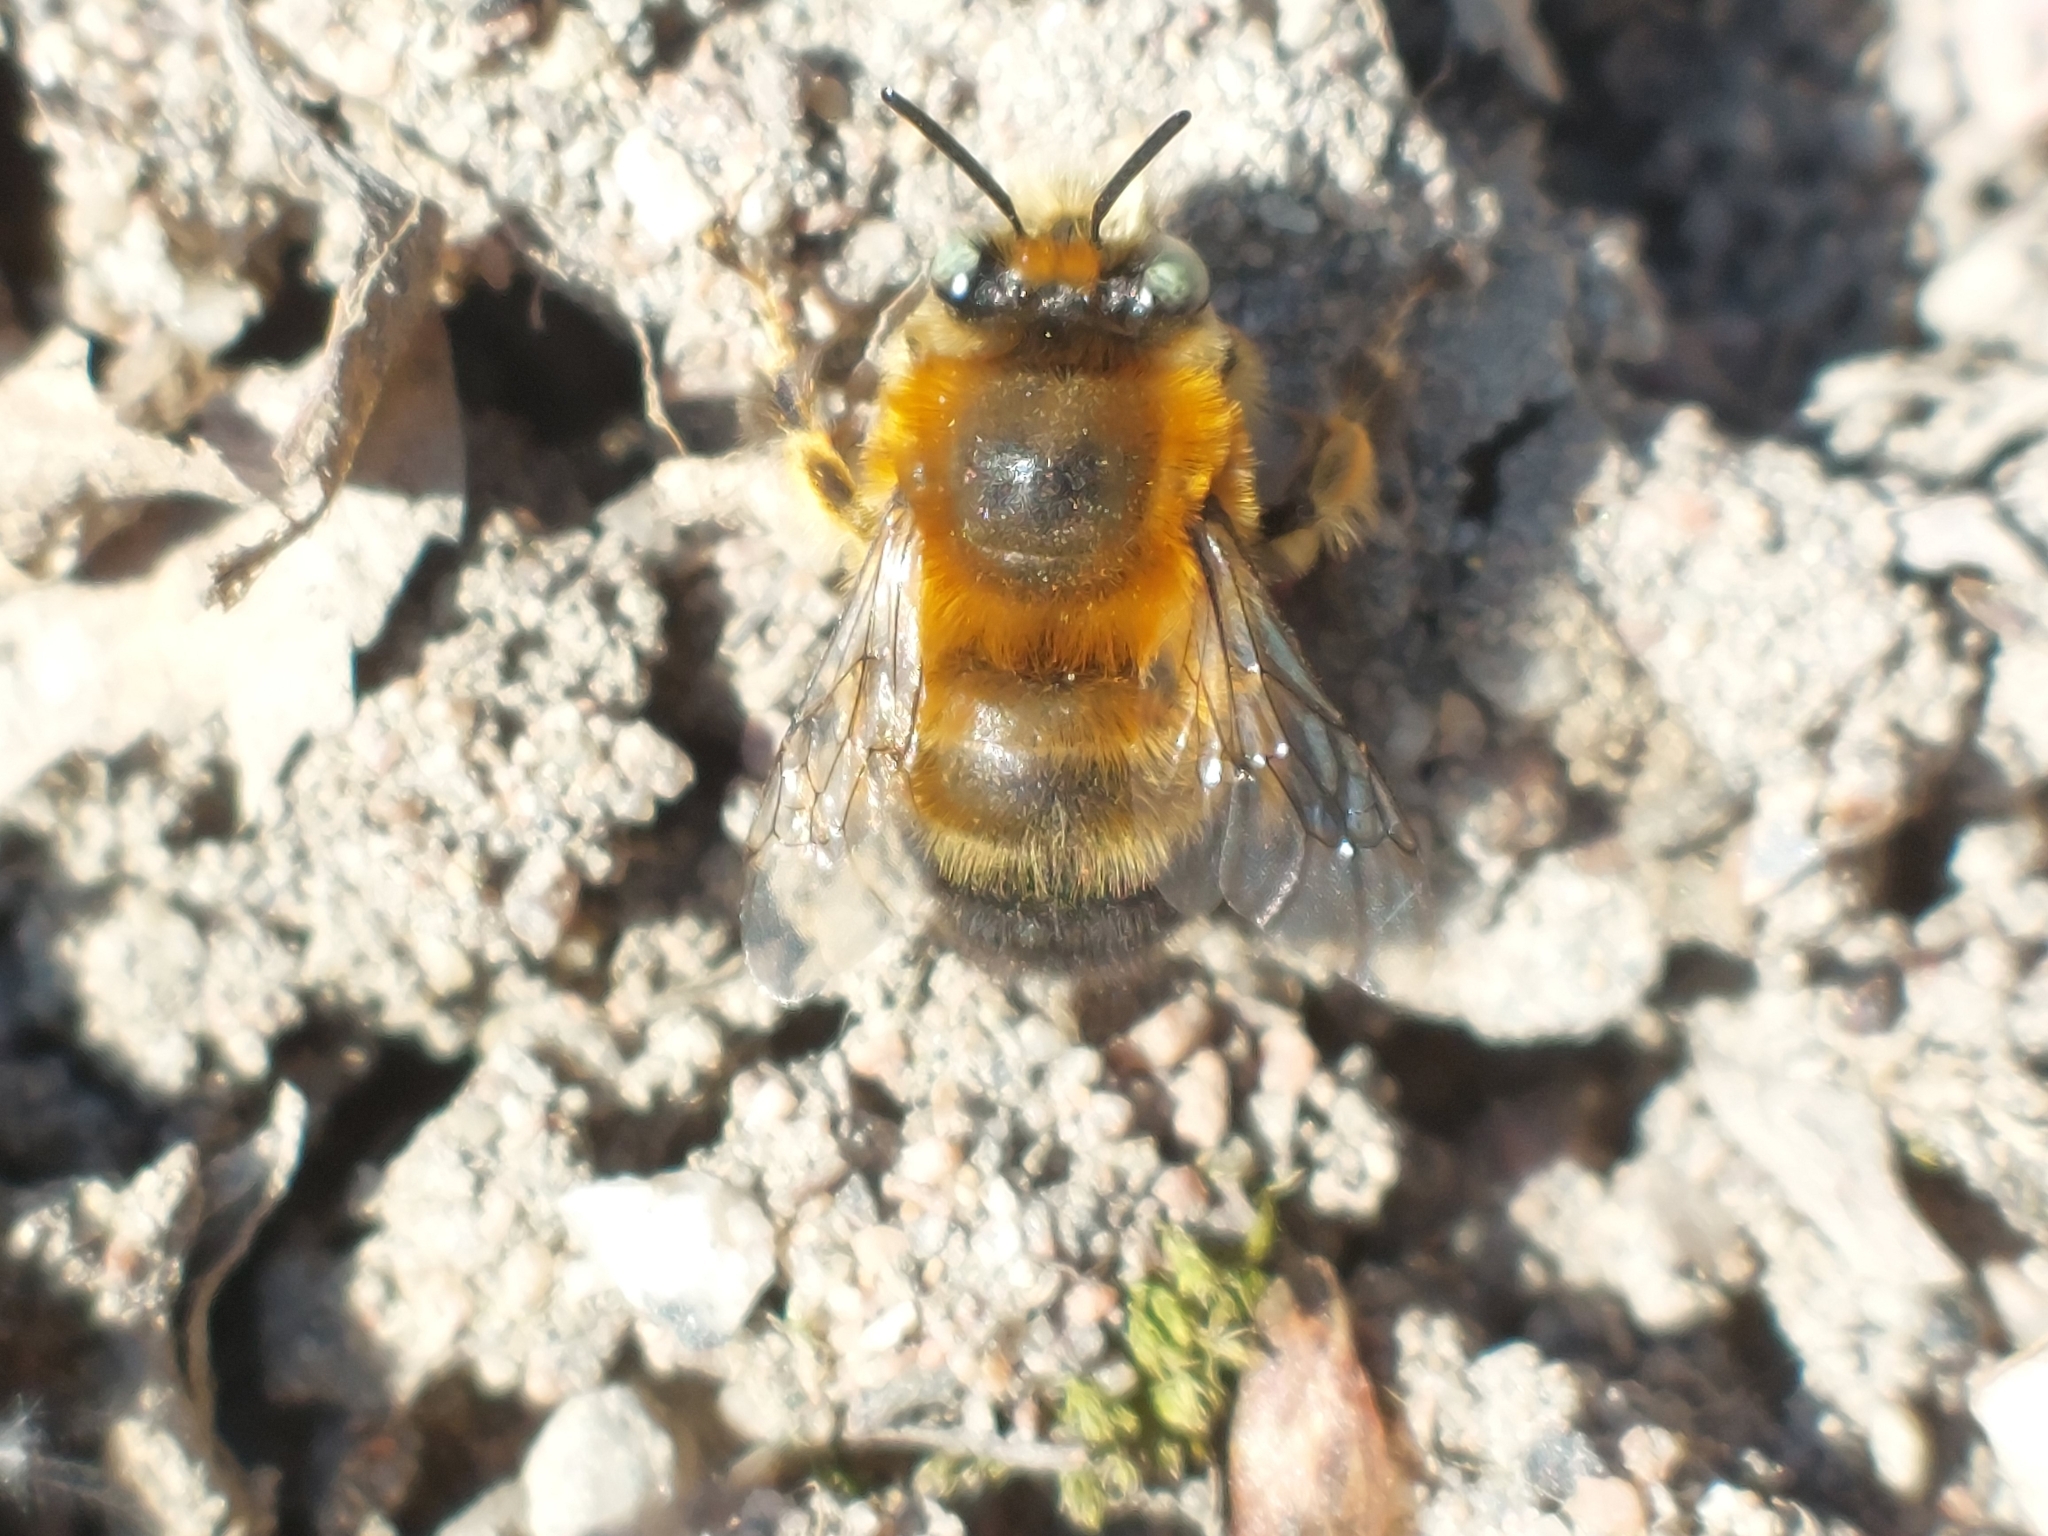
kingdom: Animalia
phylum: Arthropoda
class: Insecta
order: Hymenoptera
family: Apidae
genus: Anthophora
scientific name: Anthophora retusa
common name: Potter flower bee
